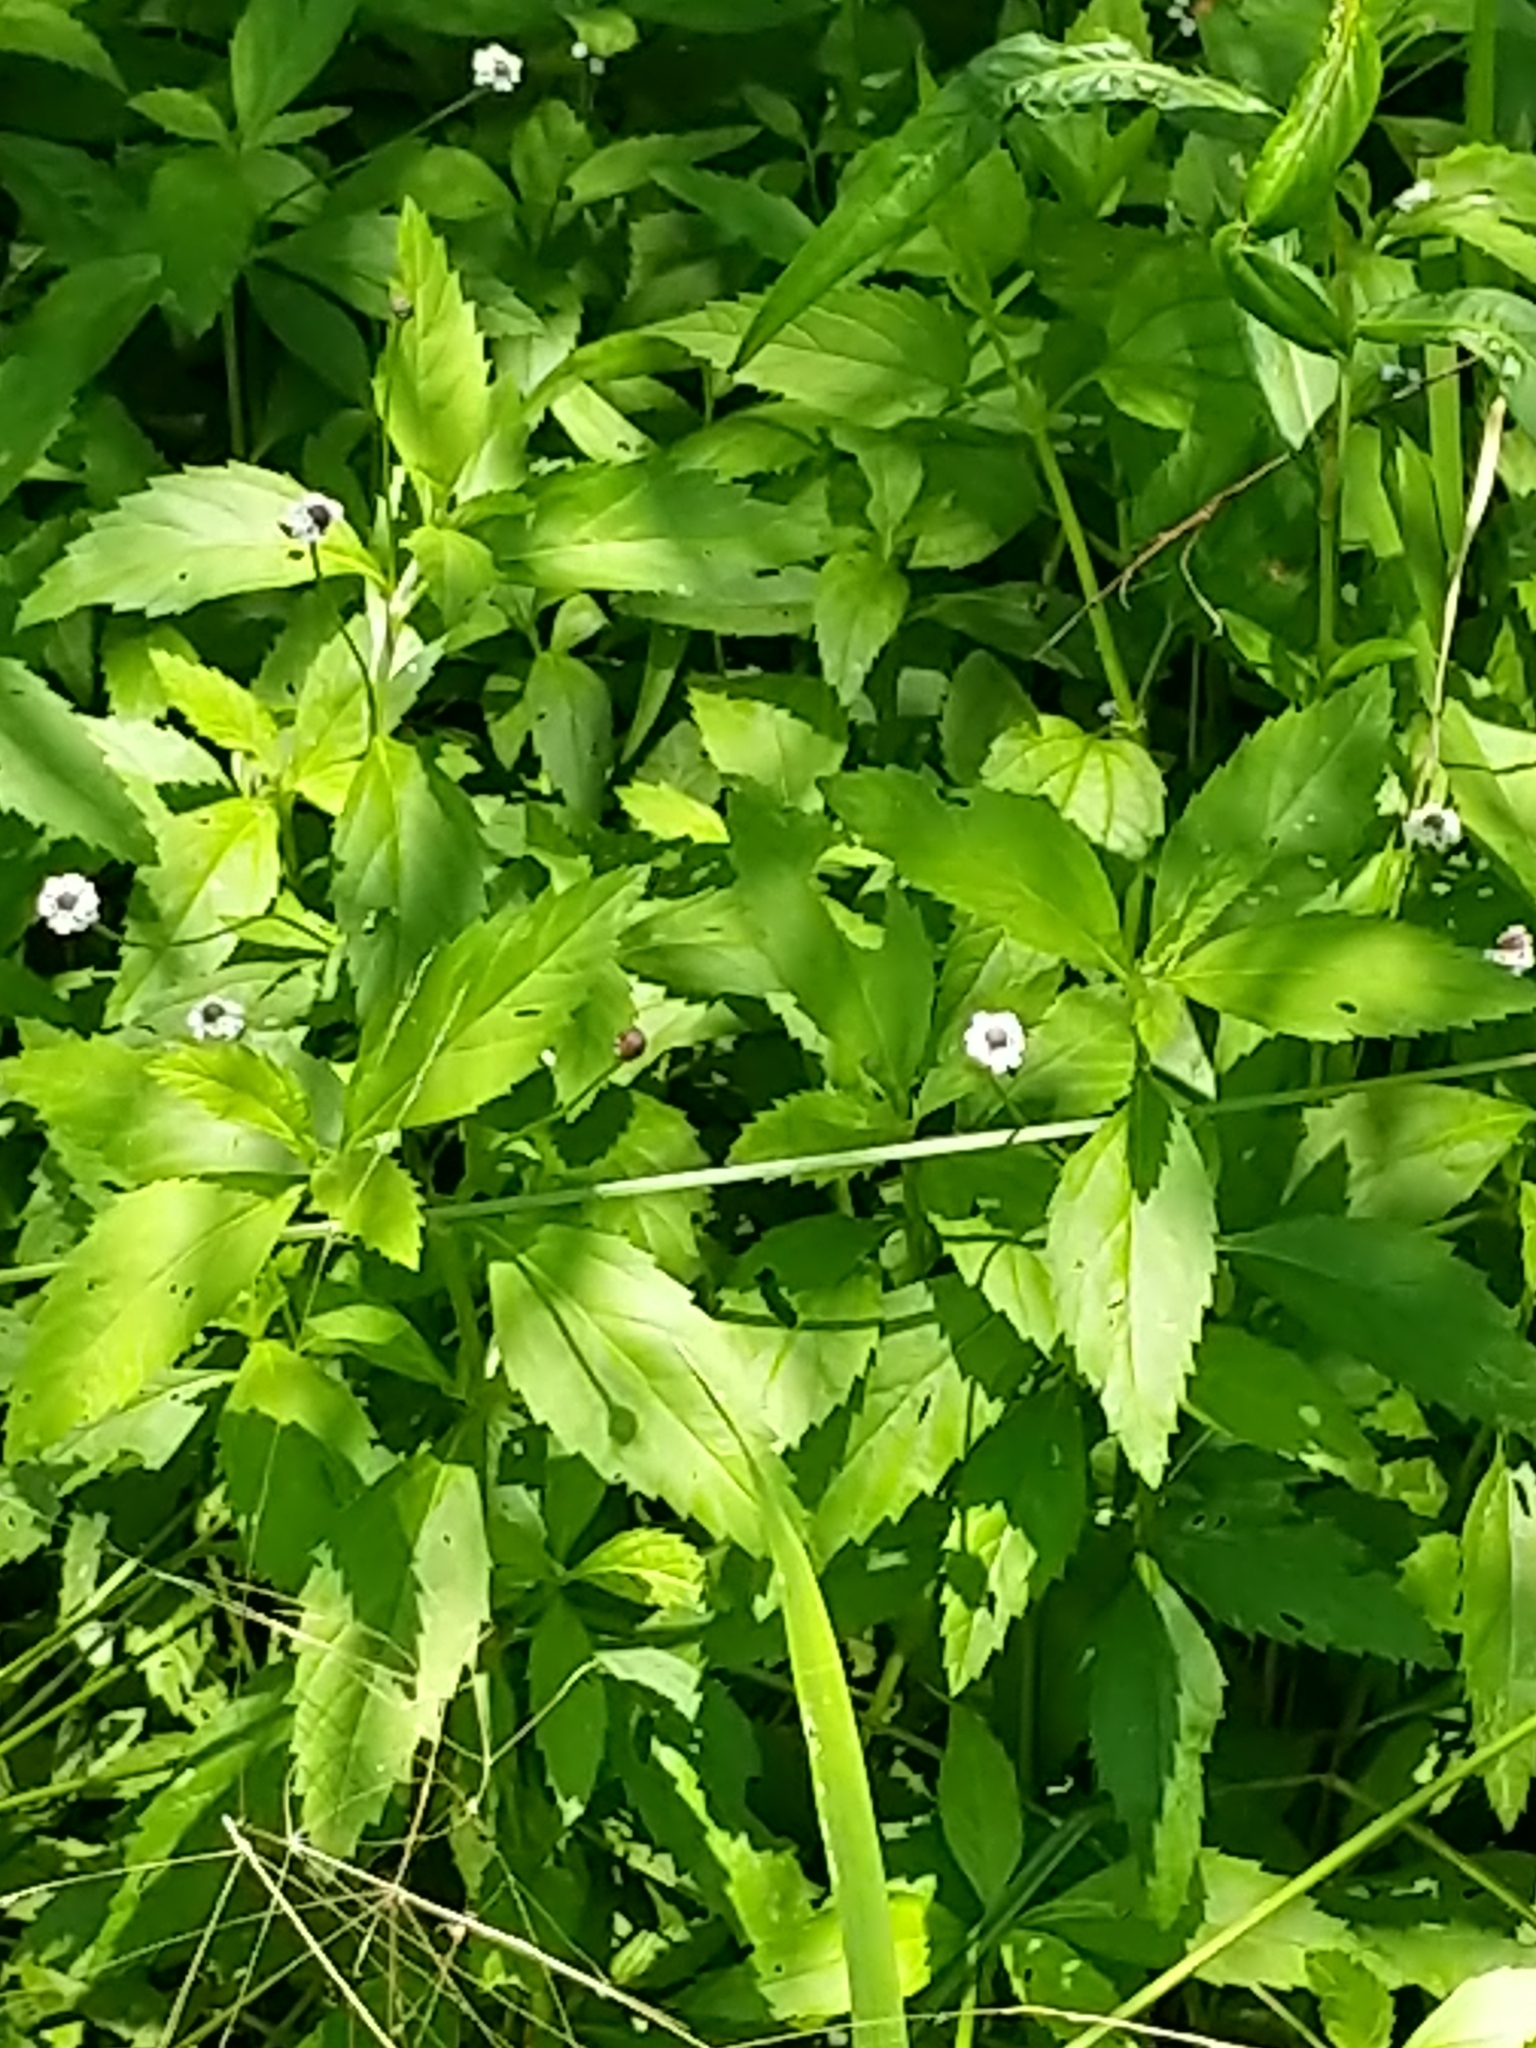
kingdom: Plantae
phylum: Tracheophyta
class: Magnoliopsida
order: Lamiales
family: Verbenaceae
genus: Phyla
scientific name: Phyla lanceolata
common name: Northern fogfruit
